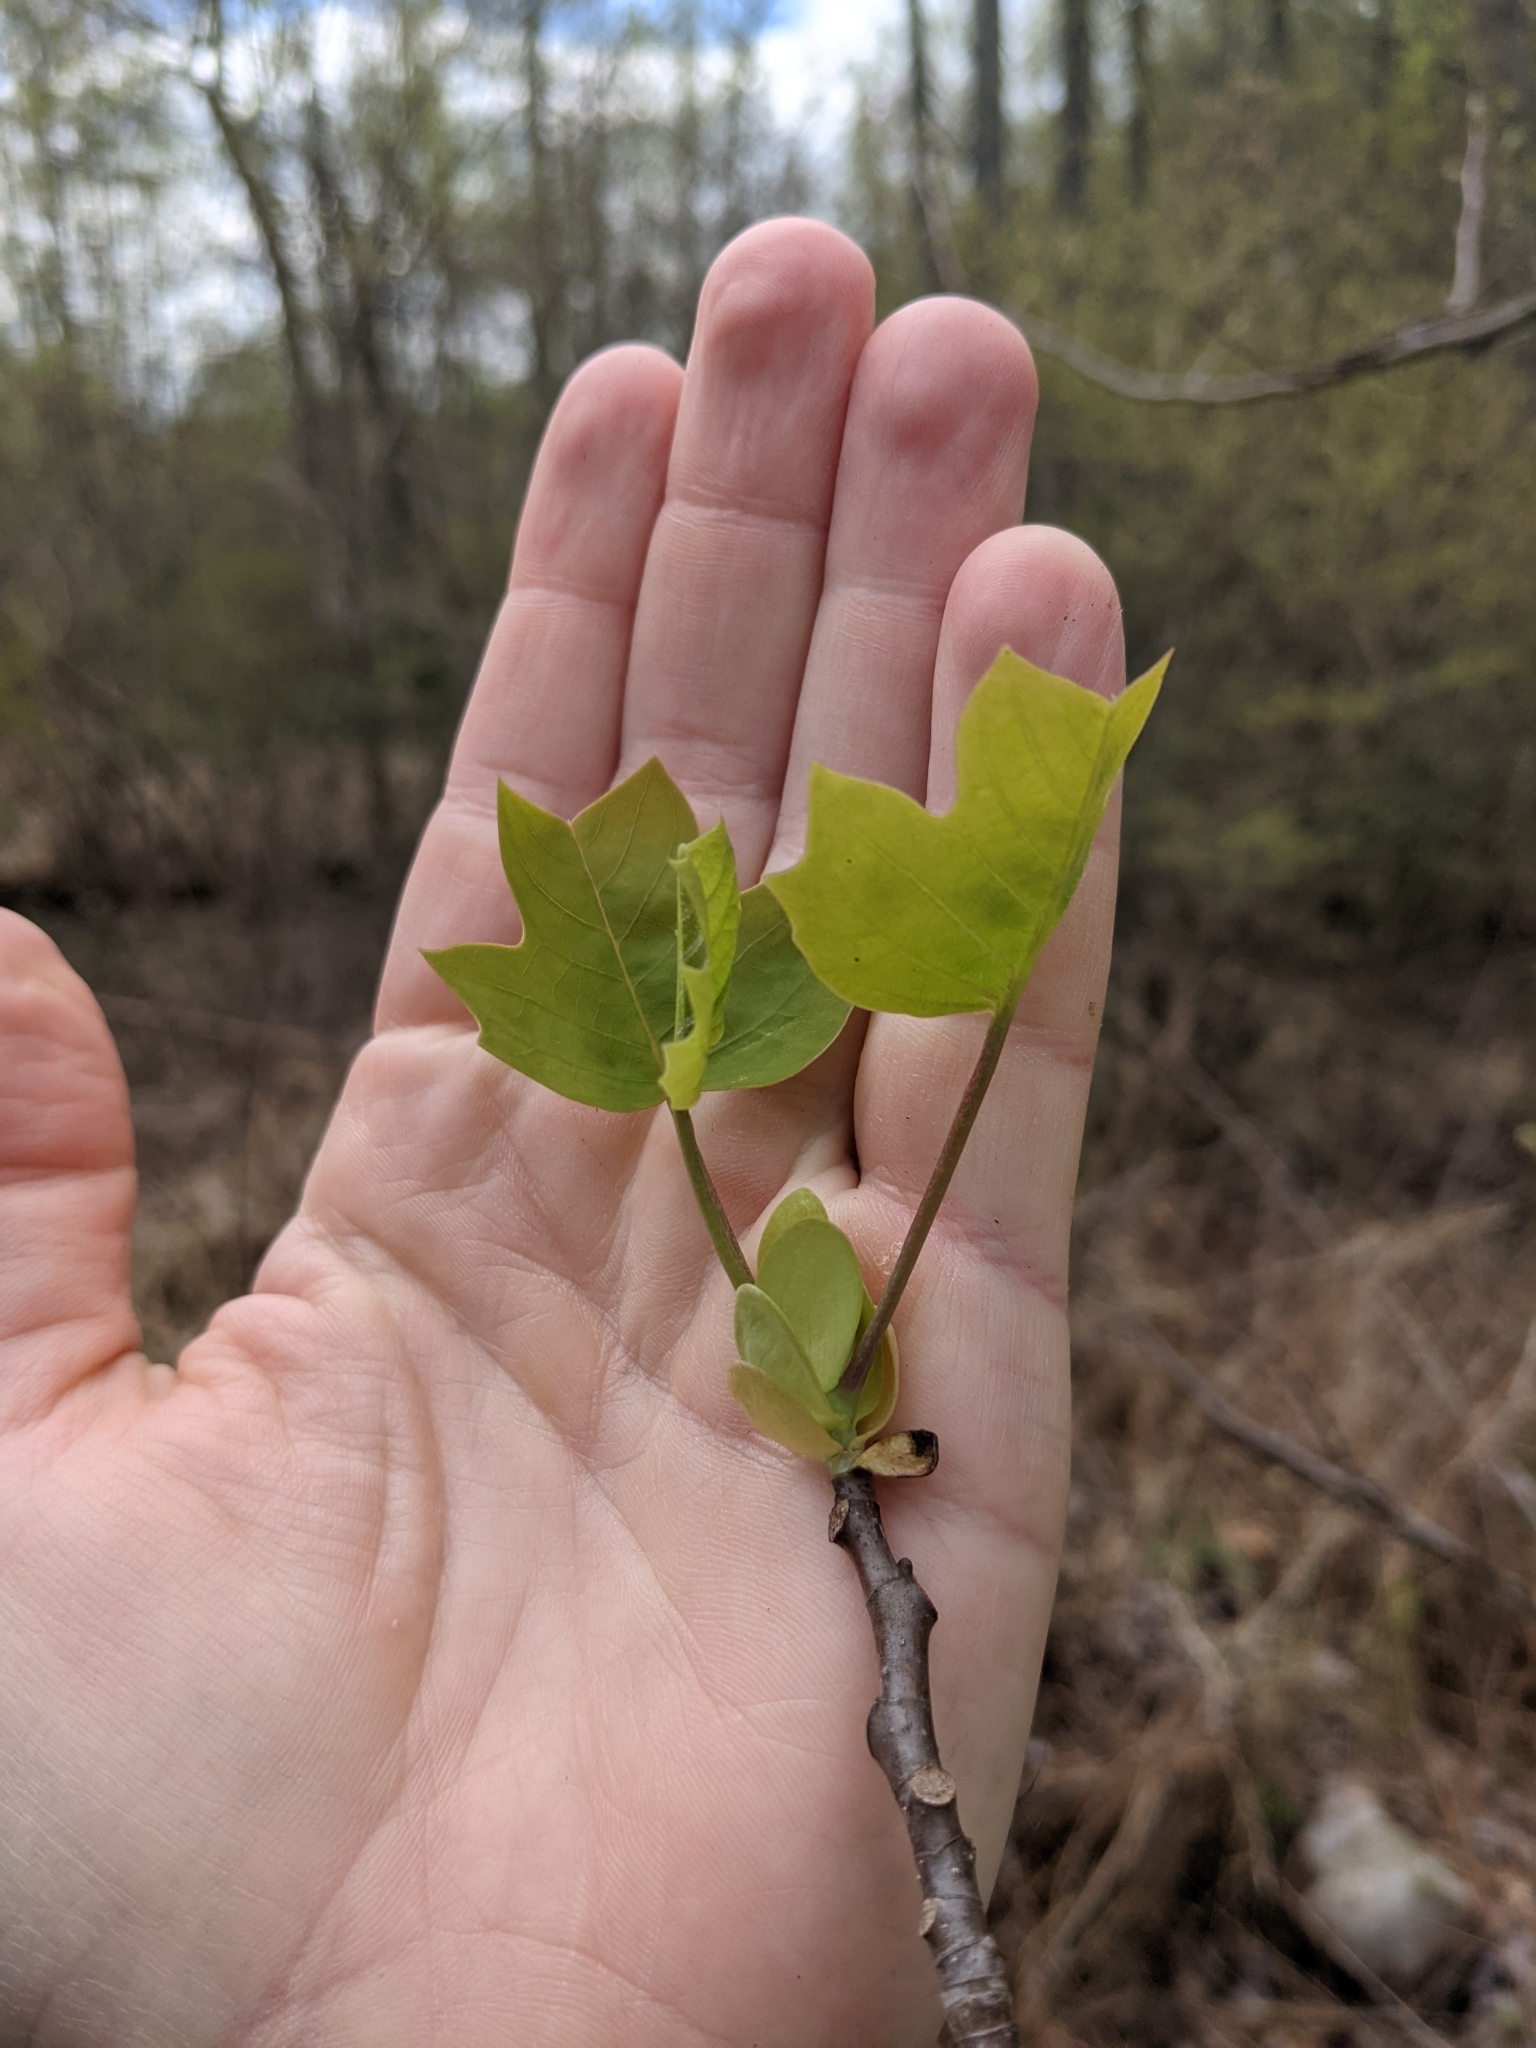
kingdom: Plantae
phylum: Tracheophyta
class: Magnoliopsida
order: Magnoliales
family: Magnoliaceae
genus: Liriodendron
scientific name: Liriodendron tulipifera
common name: Tulip tree
